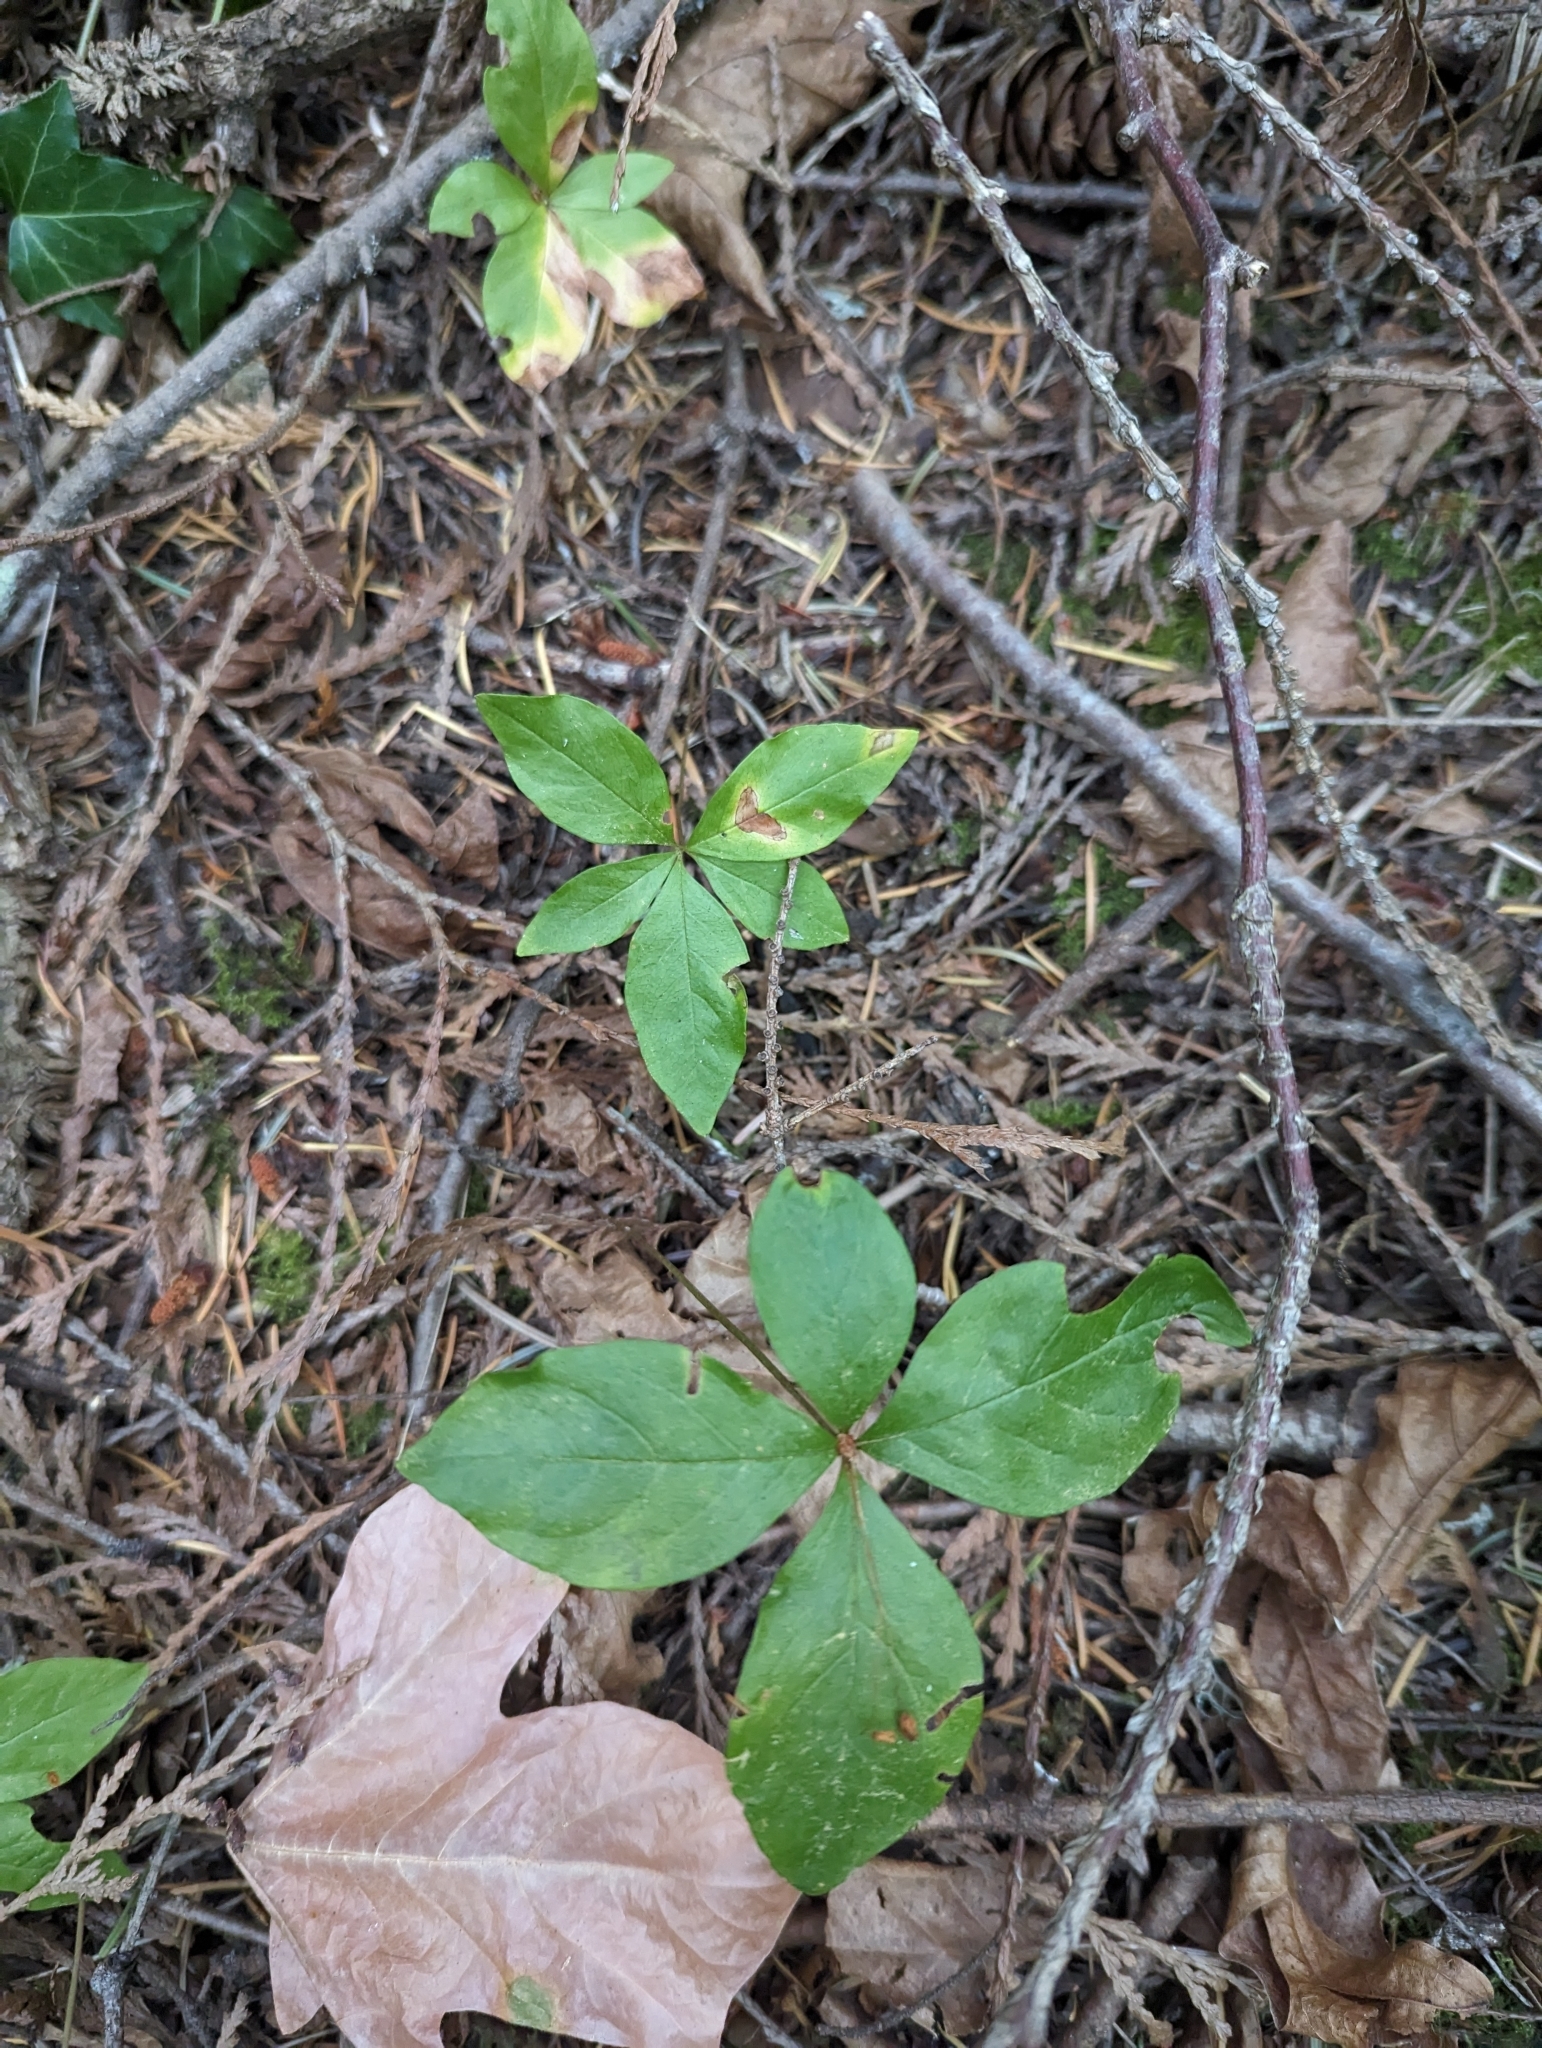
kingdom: Plantae
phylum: Tracheophyta
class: Magnoliopsida
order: Ericales
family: Primulaceae
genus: Lysimachia
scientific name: Lysimachia latifolia
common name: Pacific starflower
